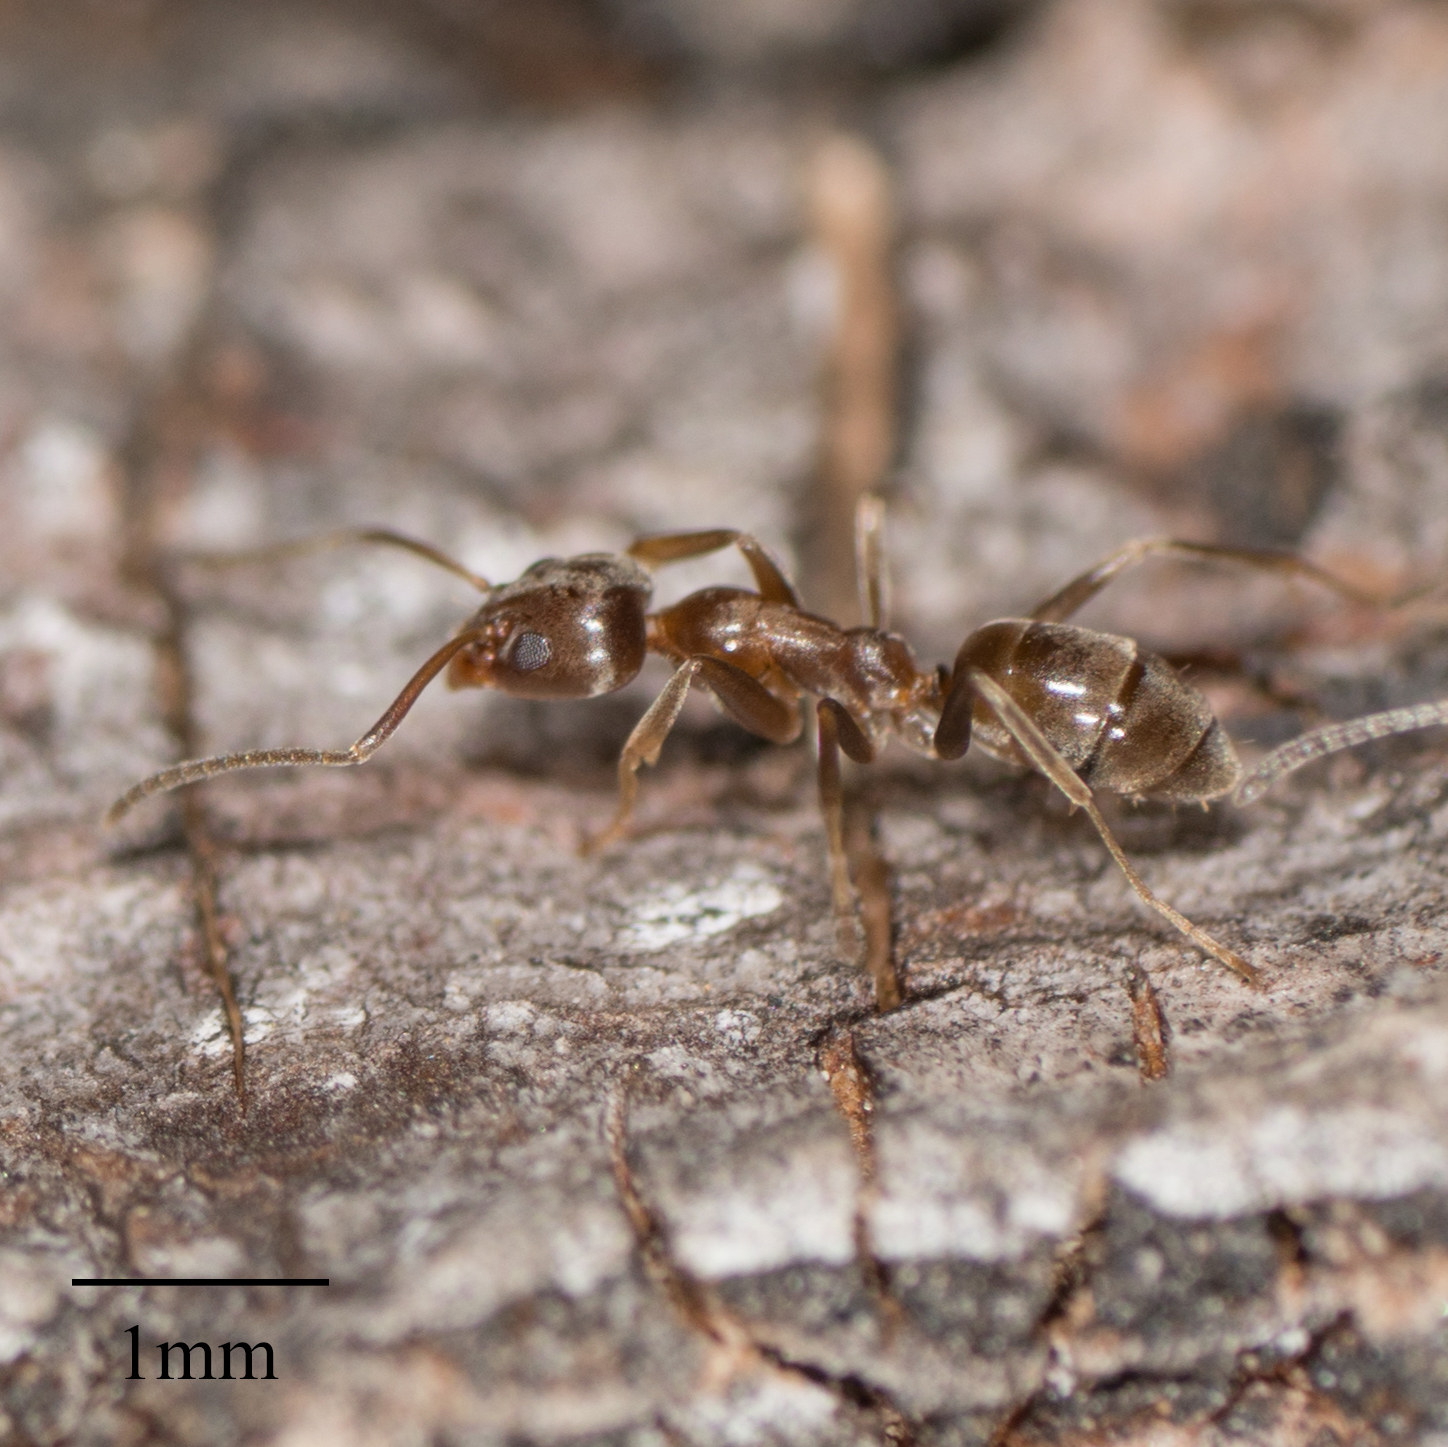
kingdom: Animalia
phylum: Arthropoda
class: Insecta
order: Hymenoptera
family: Formicidae
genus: Linepithema
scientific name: Linepithema humile
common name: Argentine ant
